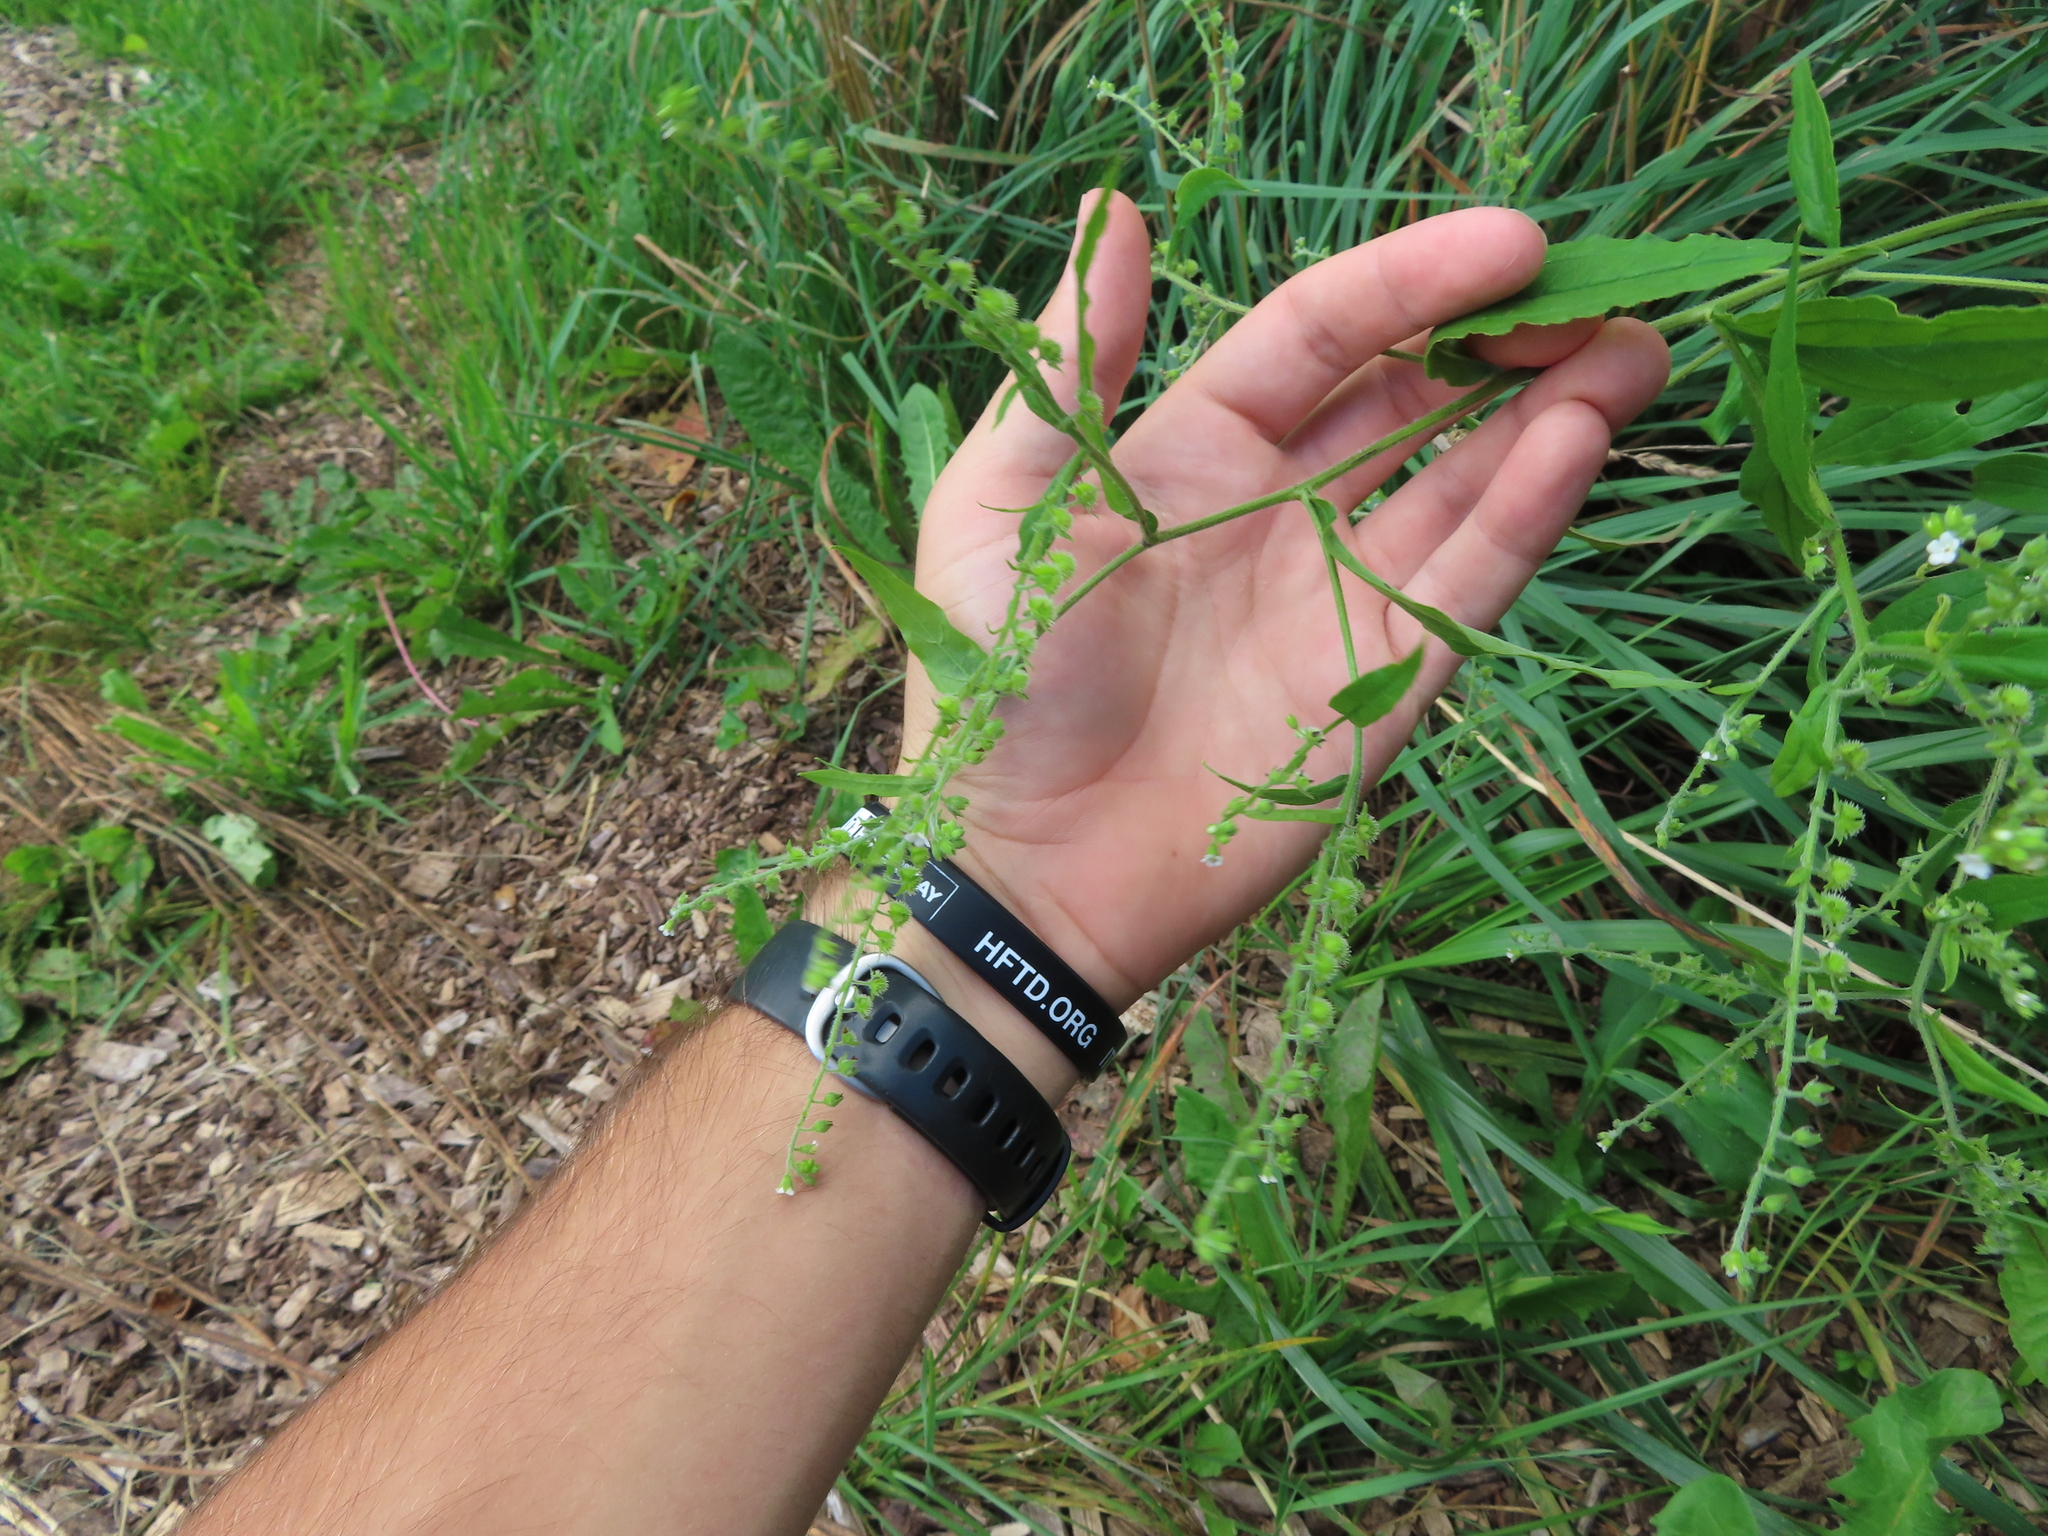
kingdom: Plantae
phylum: Tracheophyta
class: Magnoliopsida
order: Boraginales
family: Boraginaceae
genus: Hackelia
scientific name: Hackelia virginiana
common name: Beggar's-lice
